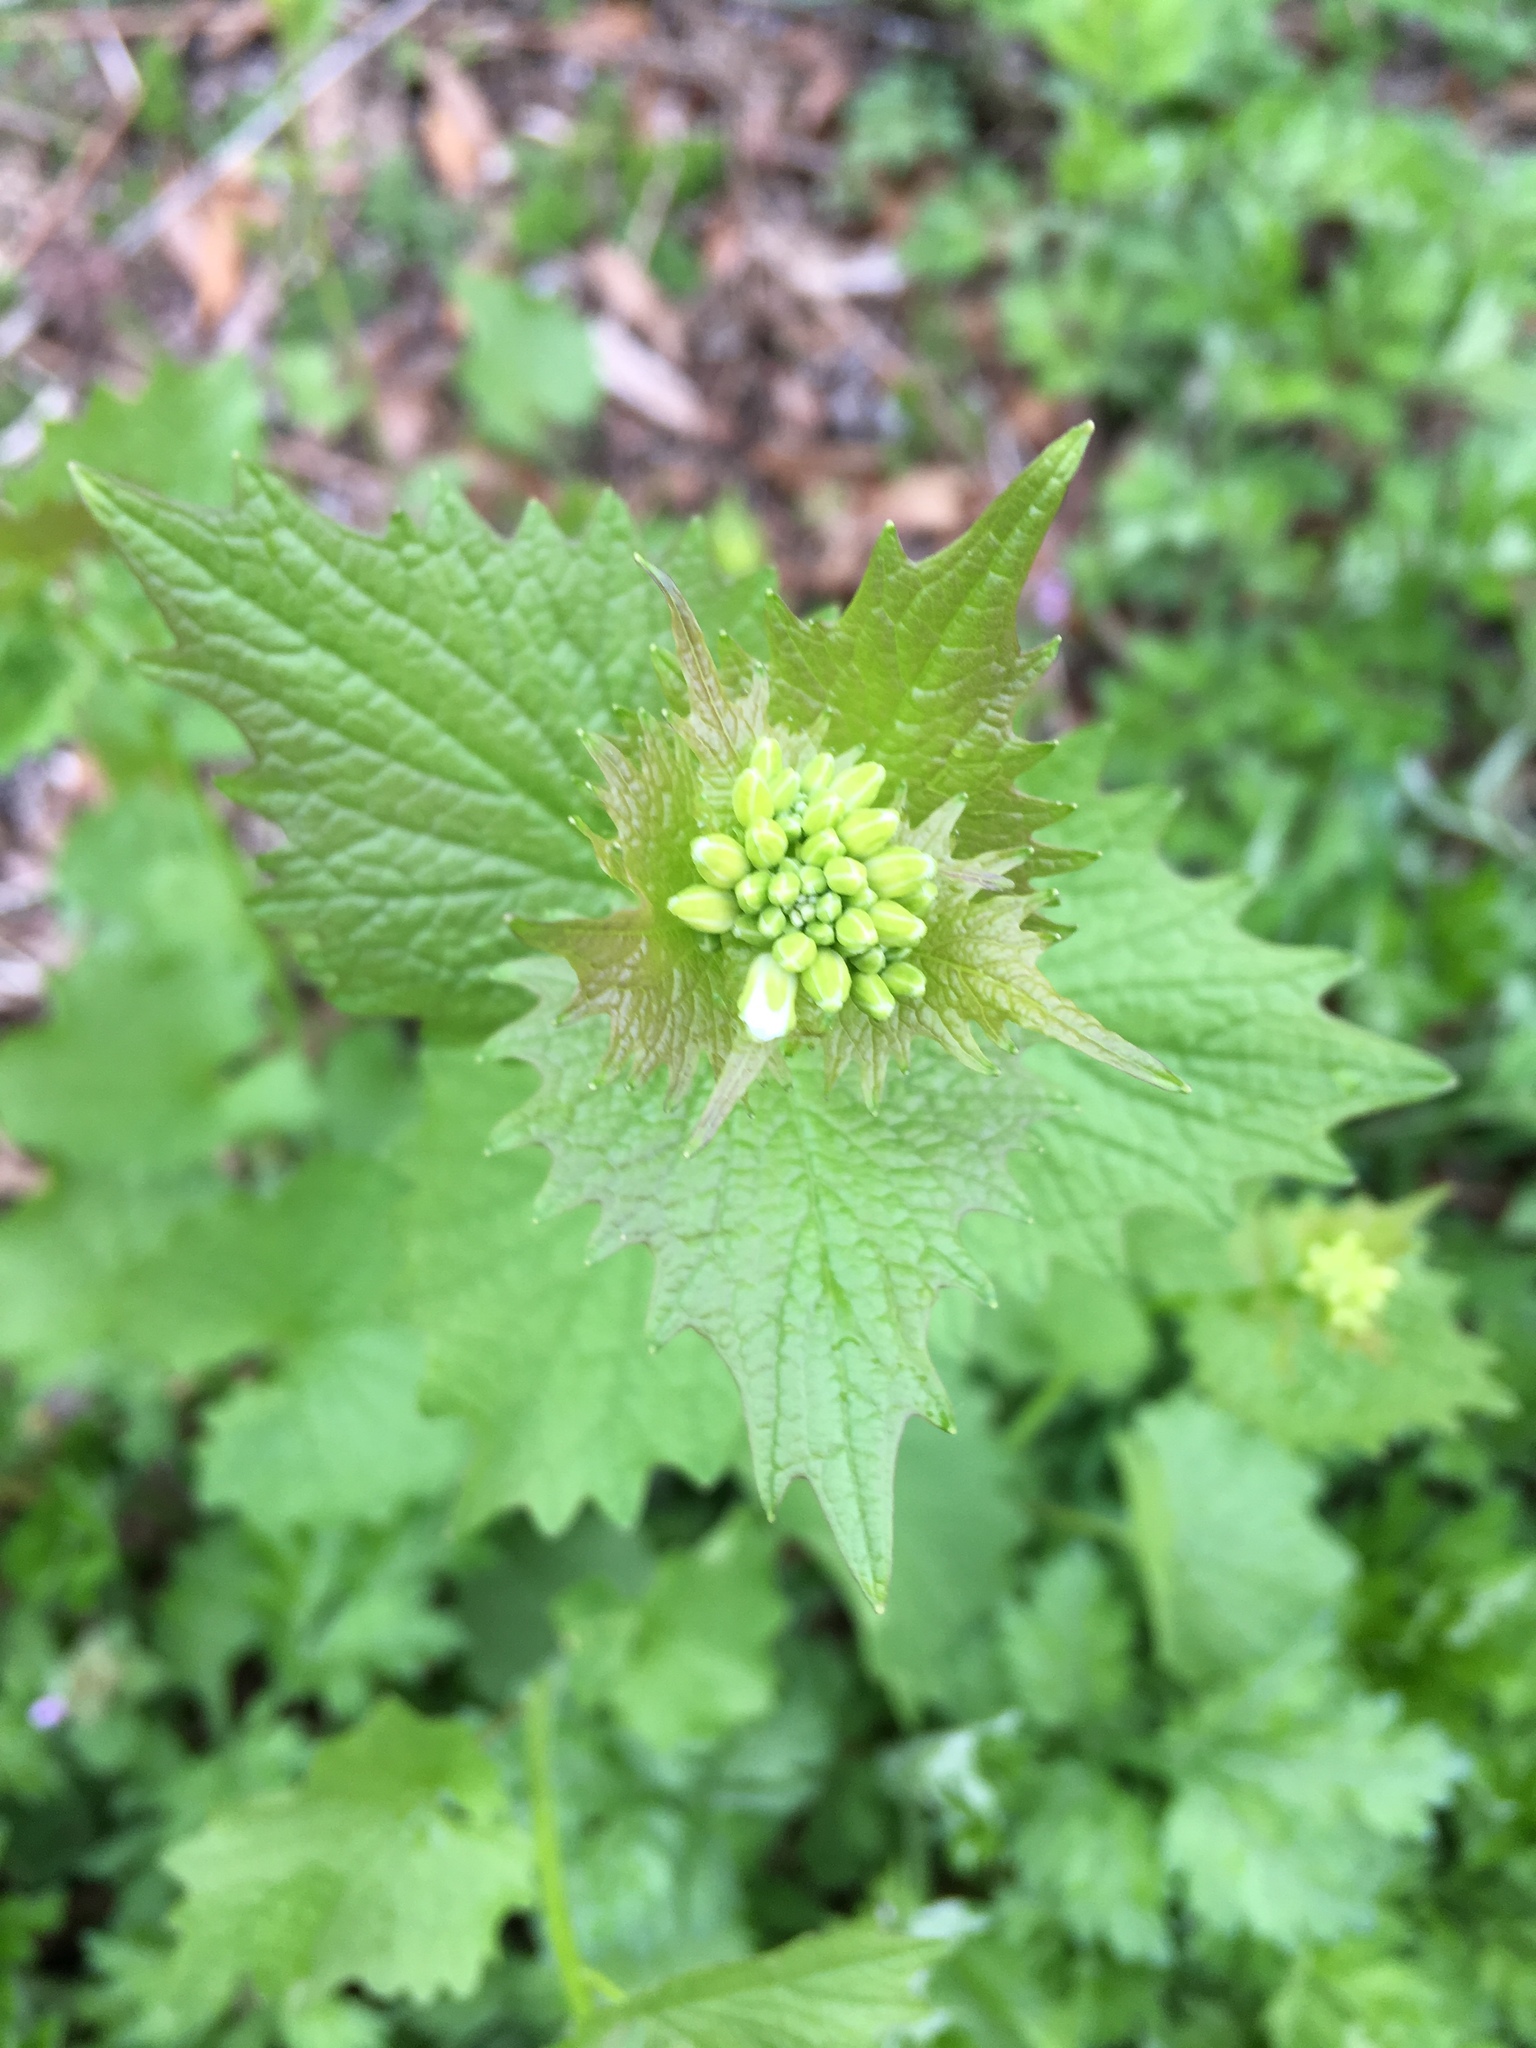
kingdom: Plantae
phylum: Tracheophyta
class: Magnoliopsida
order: Brassicales
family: Brassicaceae
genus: Alliaria
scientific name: Alliaria petiolata
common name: Garlic mustard
